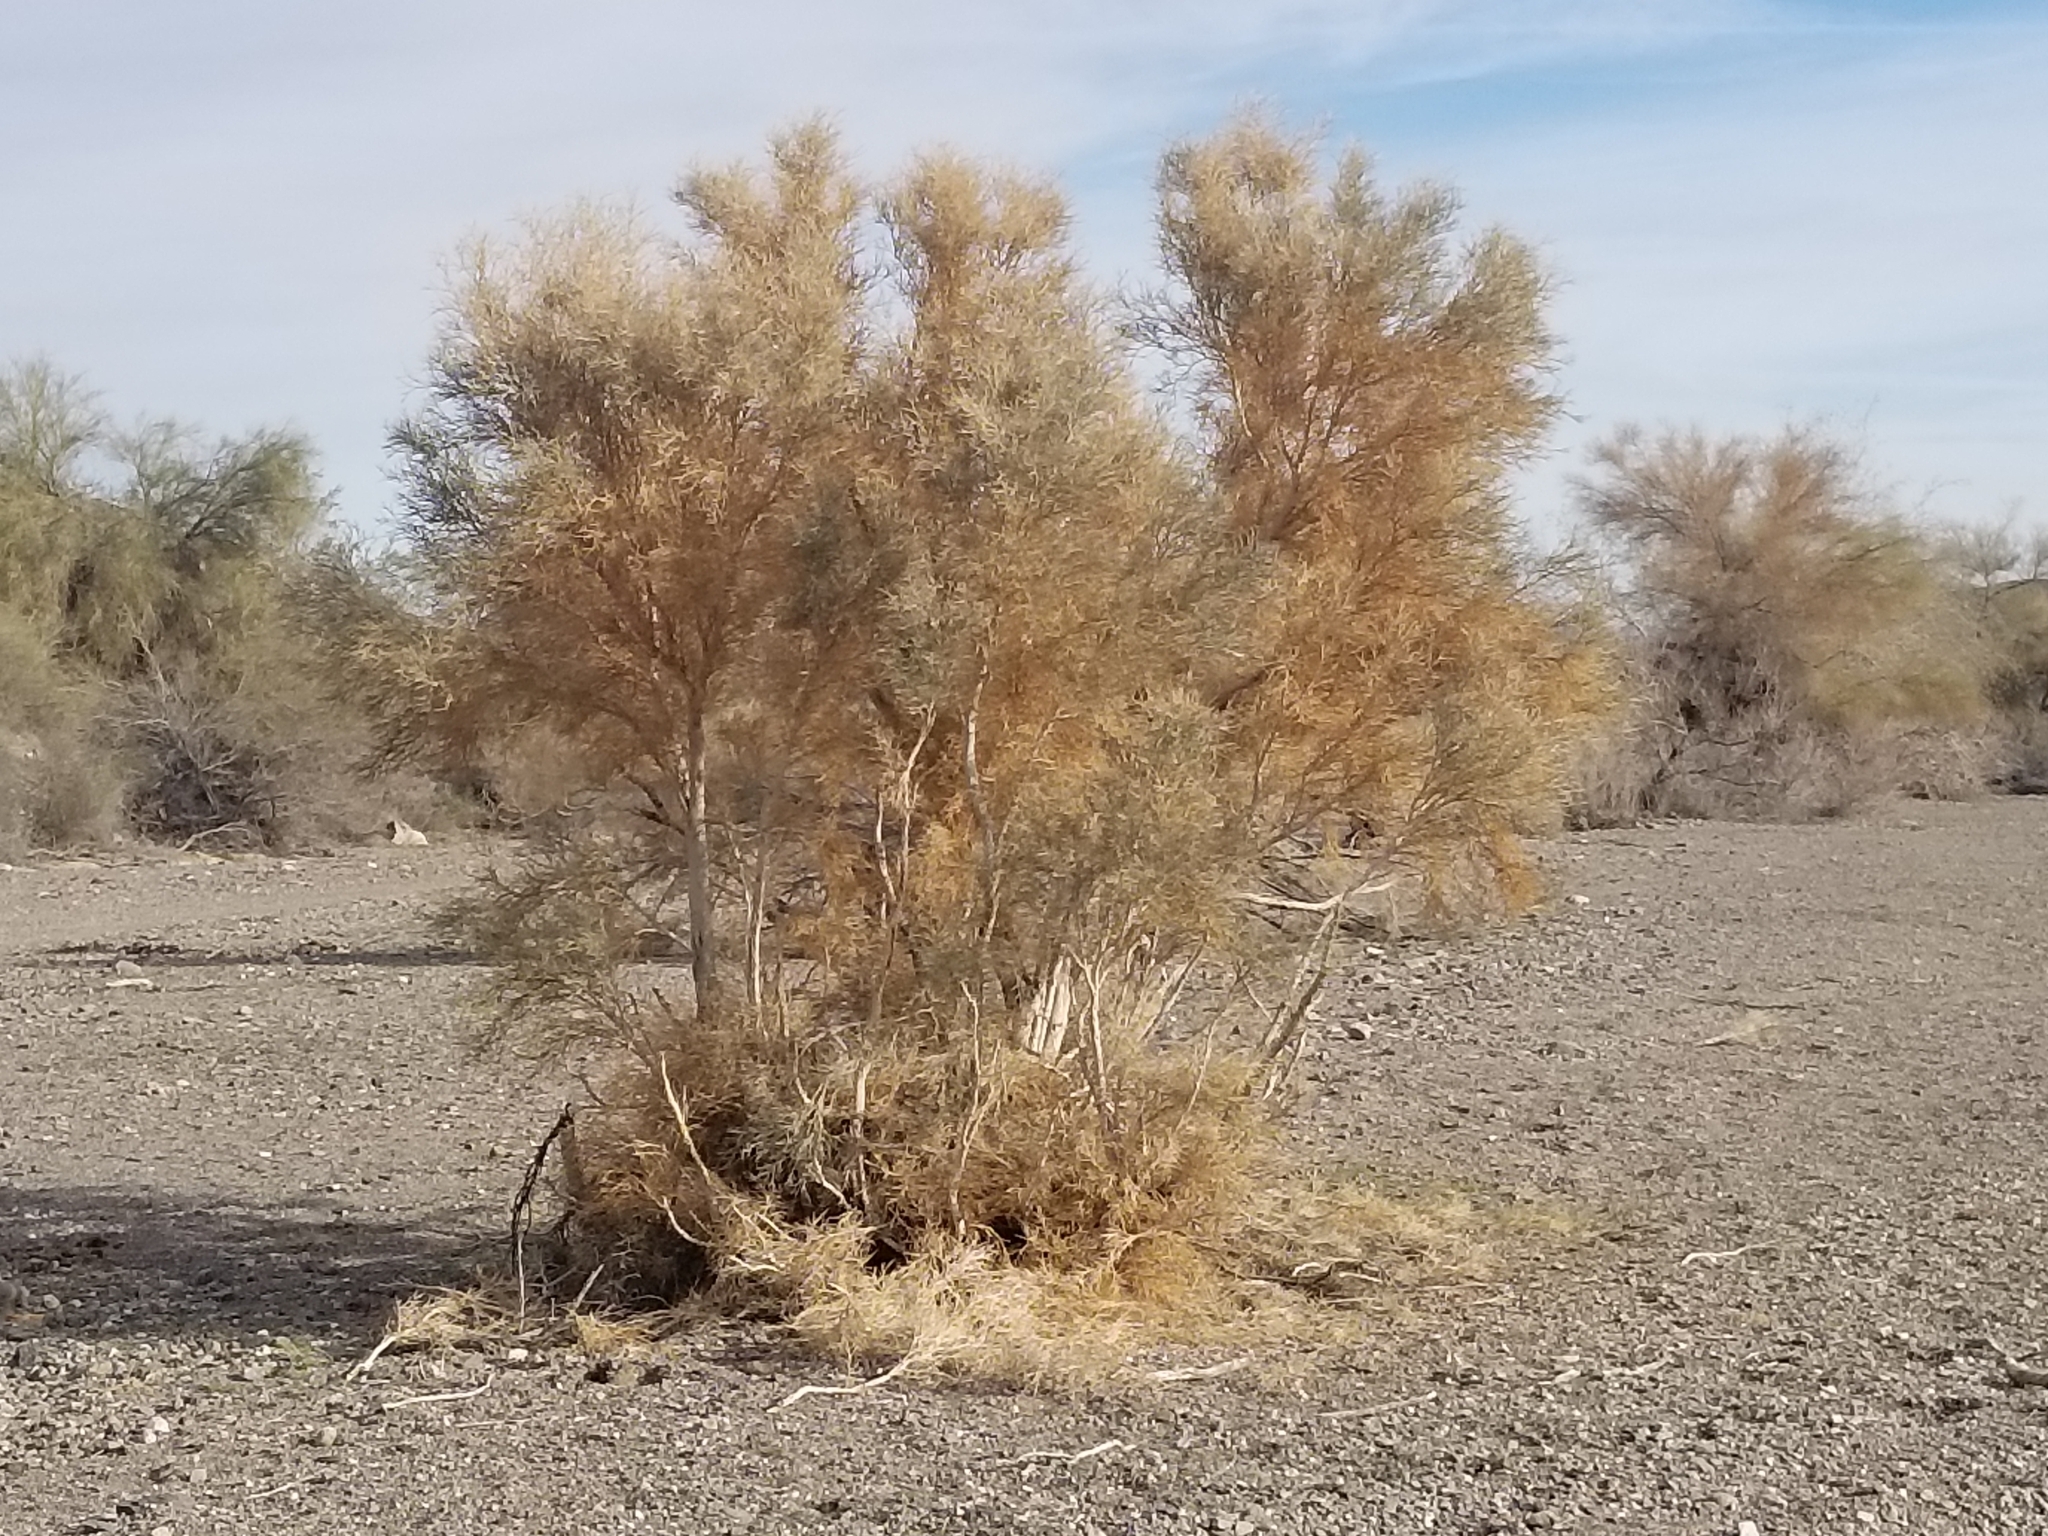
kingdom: Plantae
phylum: Tracheophyta
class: Magnoliopsida
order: Fabales
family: Fabaceae
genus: Psorothamnus
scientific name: Psorothamnus spinosus
